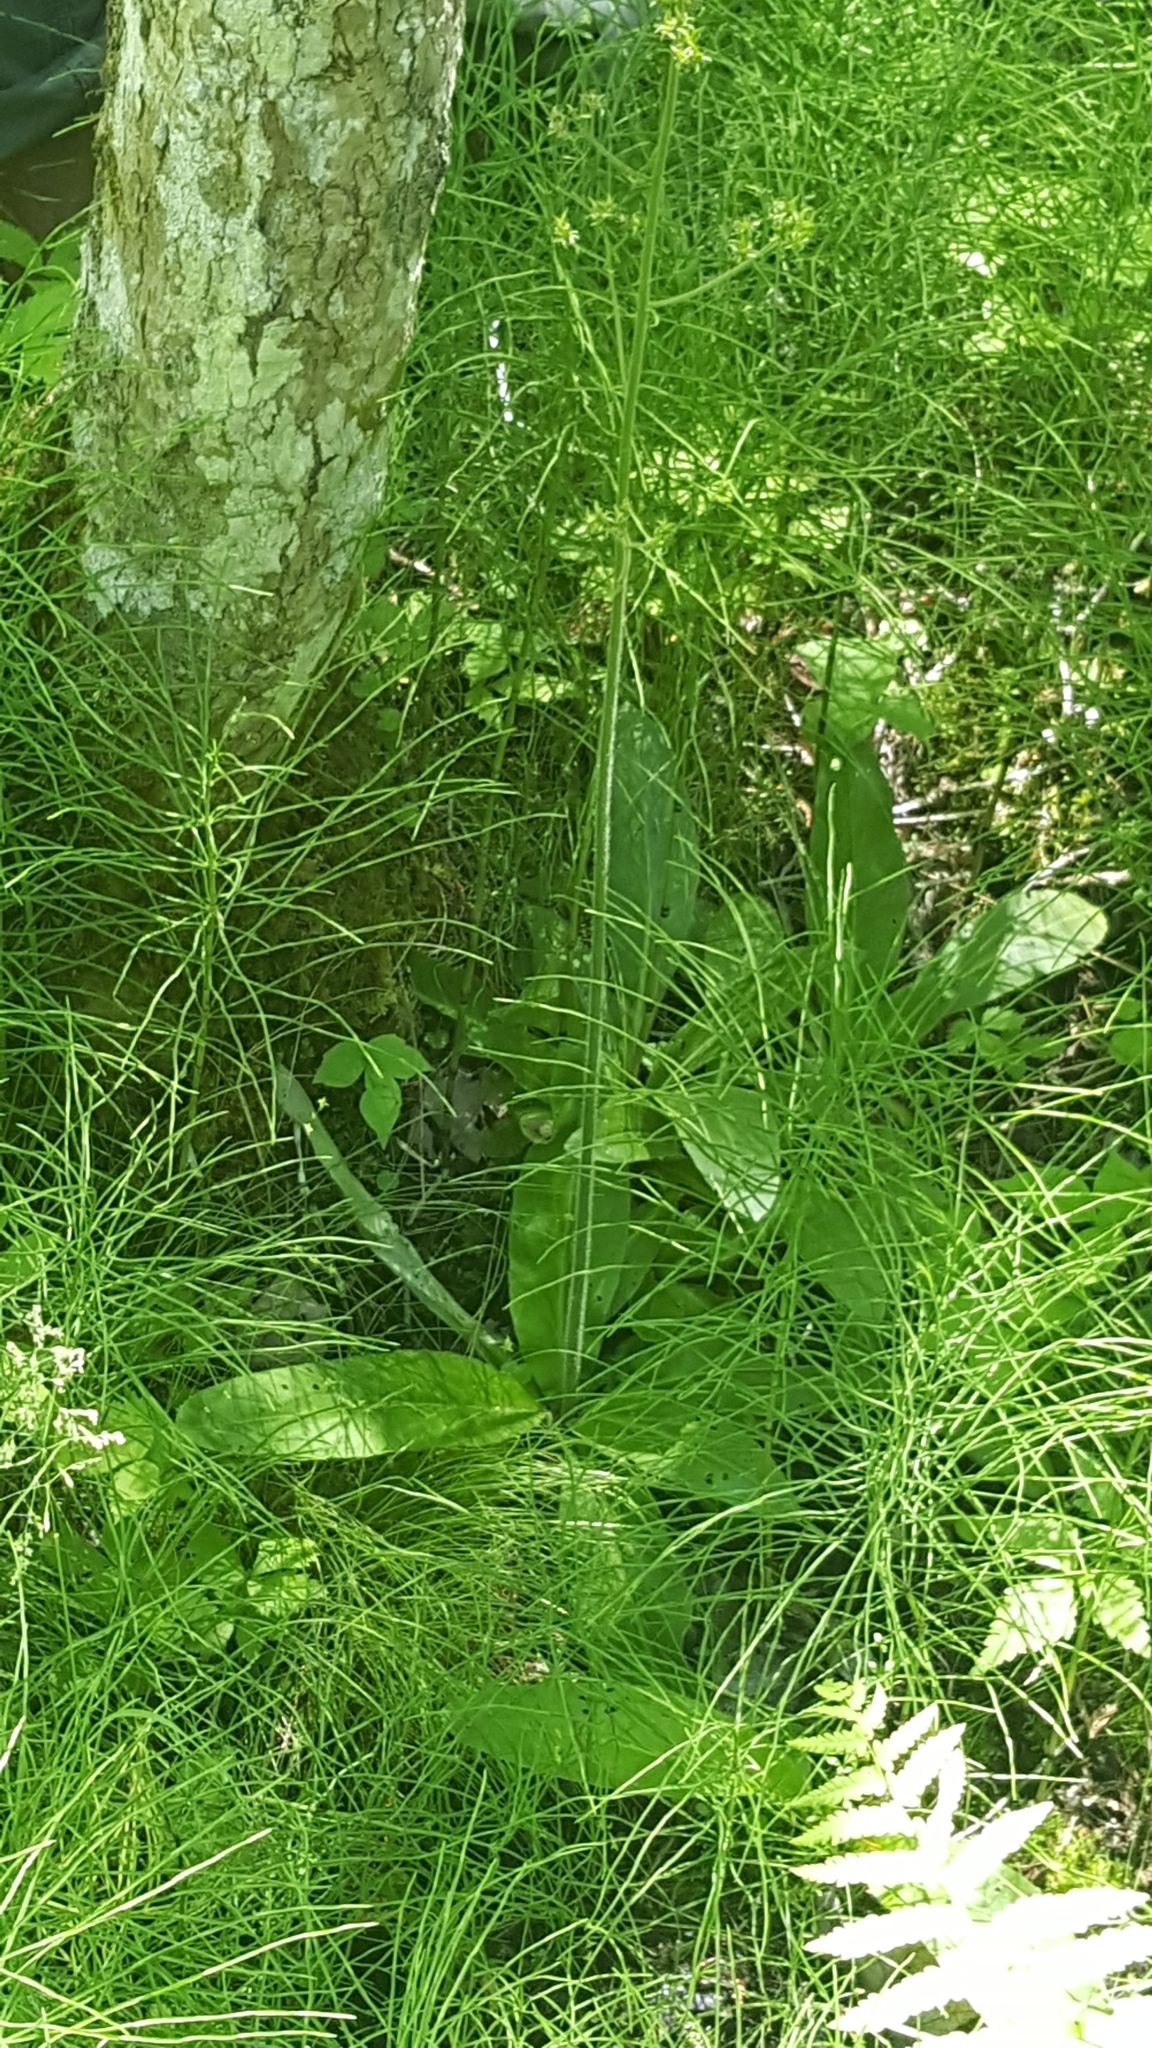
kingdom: Plantae
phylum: Tracheophyta
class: Magnoliopsida
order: Saxifragales
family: Saxifragaceae
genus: Micranthes
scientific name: Micranthes pensylvanica
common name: Marsh saxifrage
